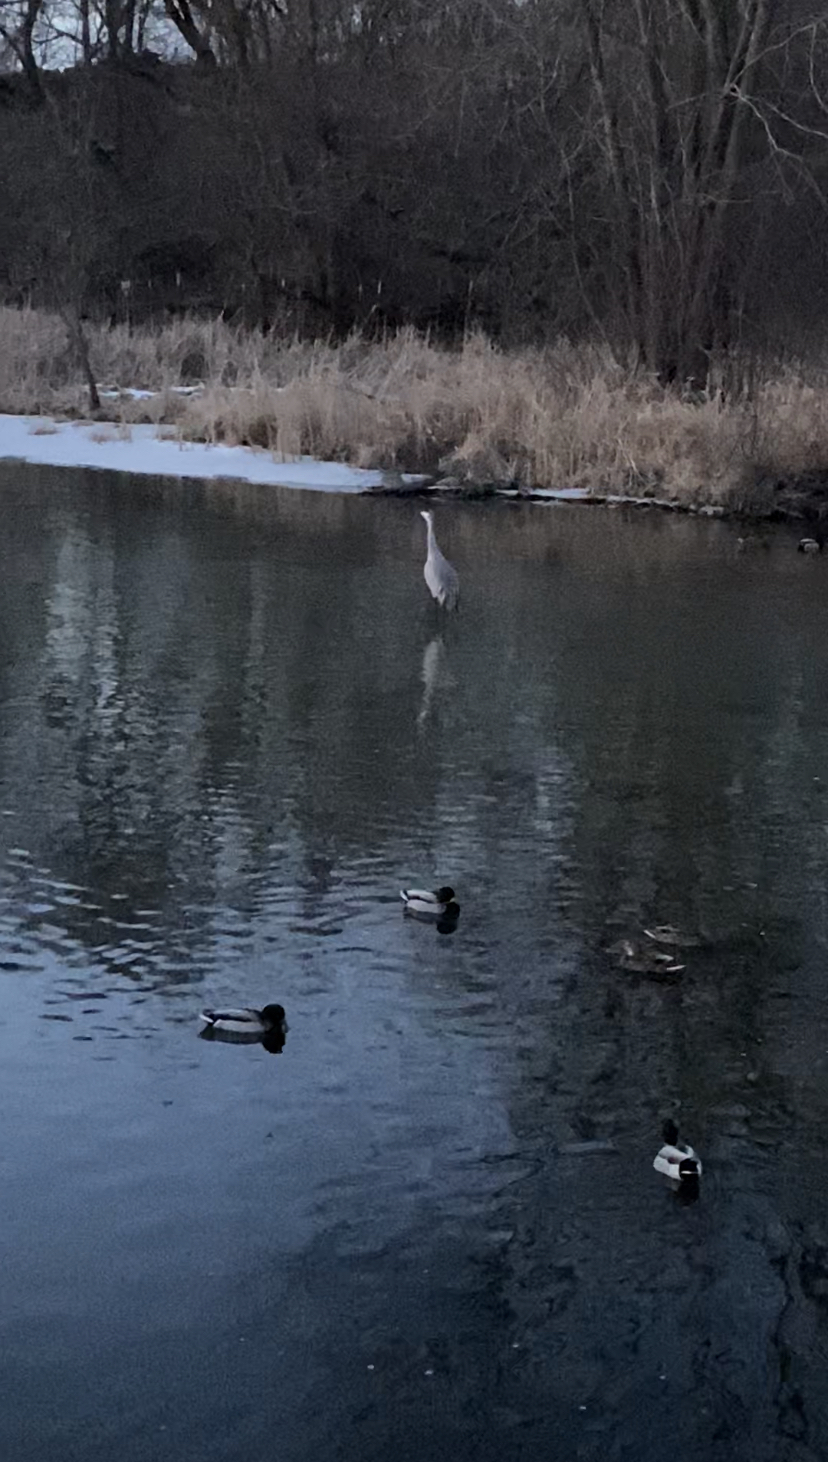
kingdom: Animalia
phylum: Chordata
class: Aves
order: Anseriformes
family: Anatidae
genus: Anas
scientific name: Anas platyrhynchos
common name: Mallard
